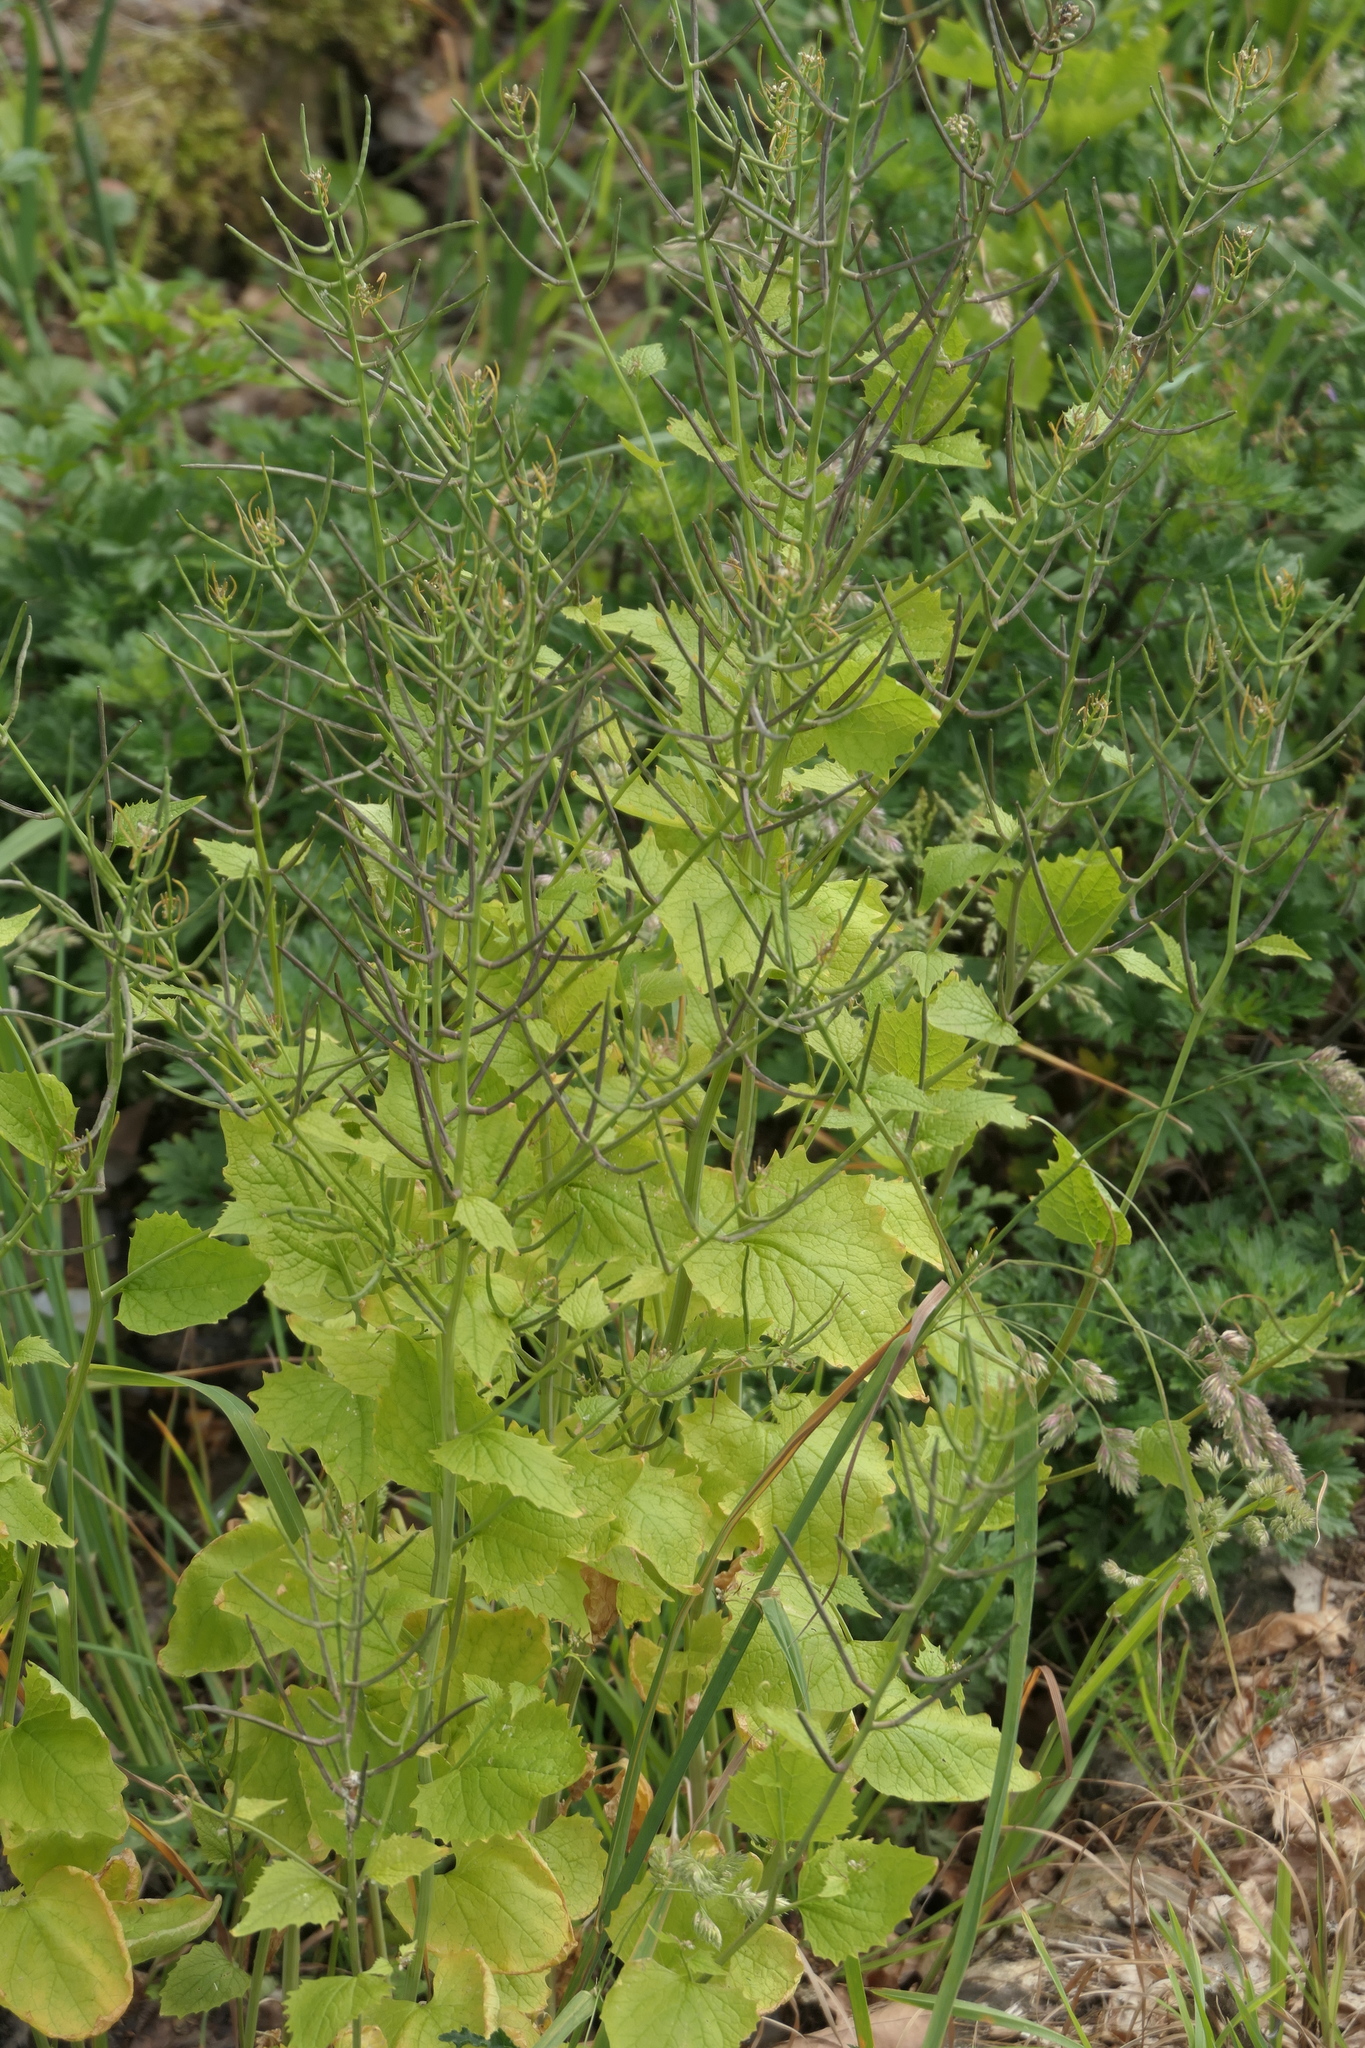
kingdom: Plantae
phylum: Tracheophyta
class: Magnoliopsida
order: Brassicales
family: Brassicaceae
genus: Alliaria
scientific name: Alliaria petiolata
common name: Garlic mustard
